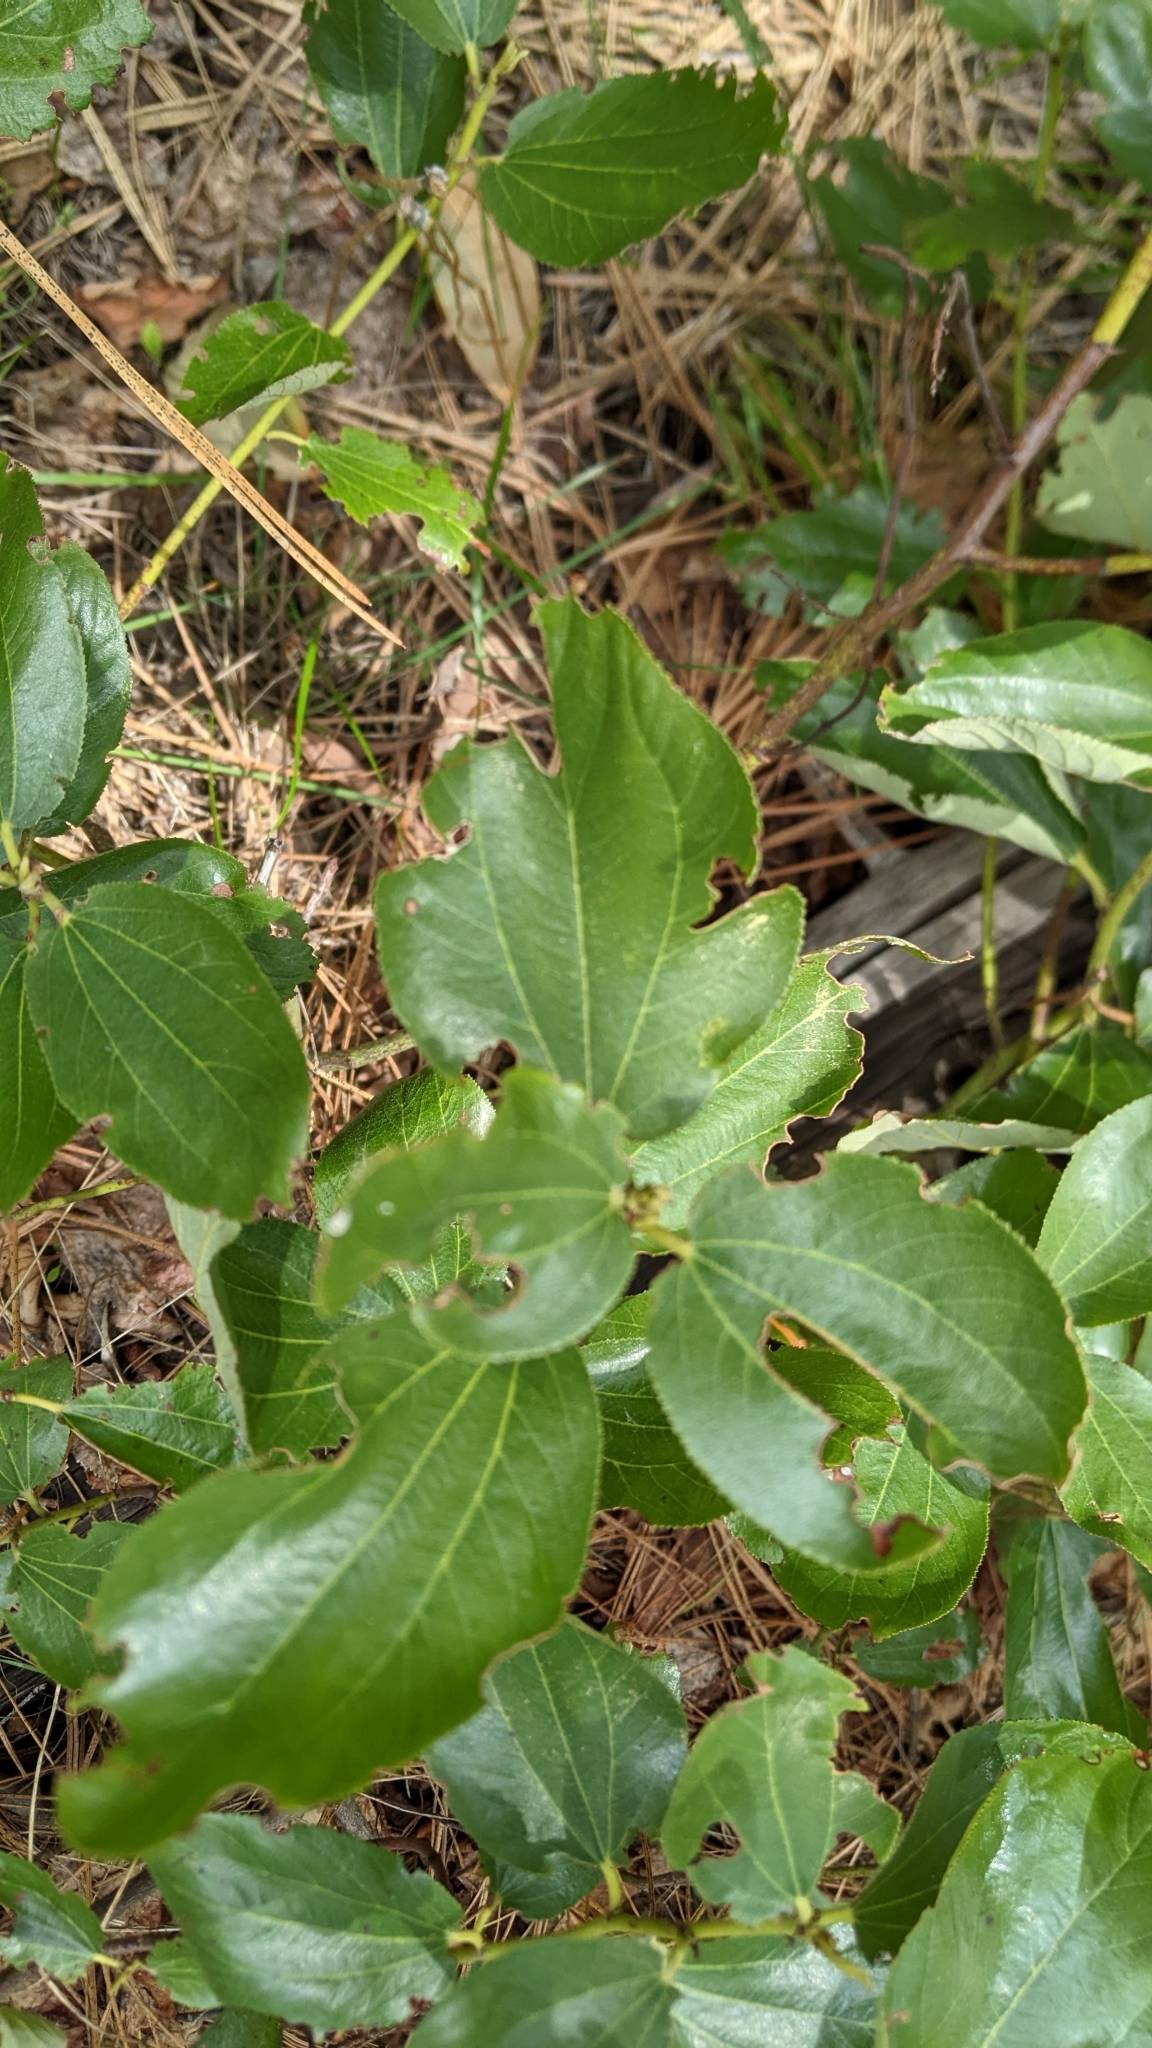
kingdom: Plantae
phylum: Tracheophyta
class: Magnoliopsida
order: Rosales
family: Rhamnaceae
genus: Ceanothus
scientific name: Ceanothus velutinus
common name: Snowbrush
